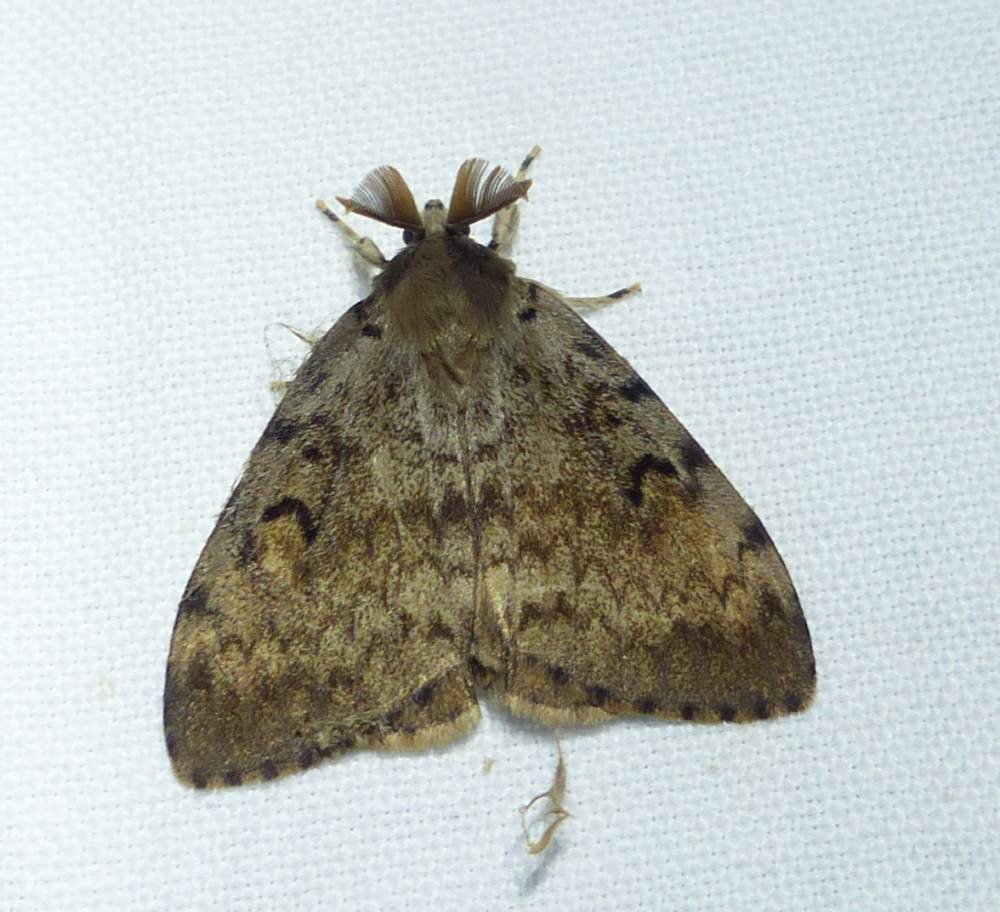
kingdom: Animalia
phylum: Arthropoda
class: Insecta
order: Lepidoptera
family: Erebidae
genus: Lymantria
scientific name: Lymantria dispar
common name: Gypsy moth
